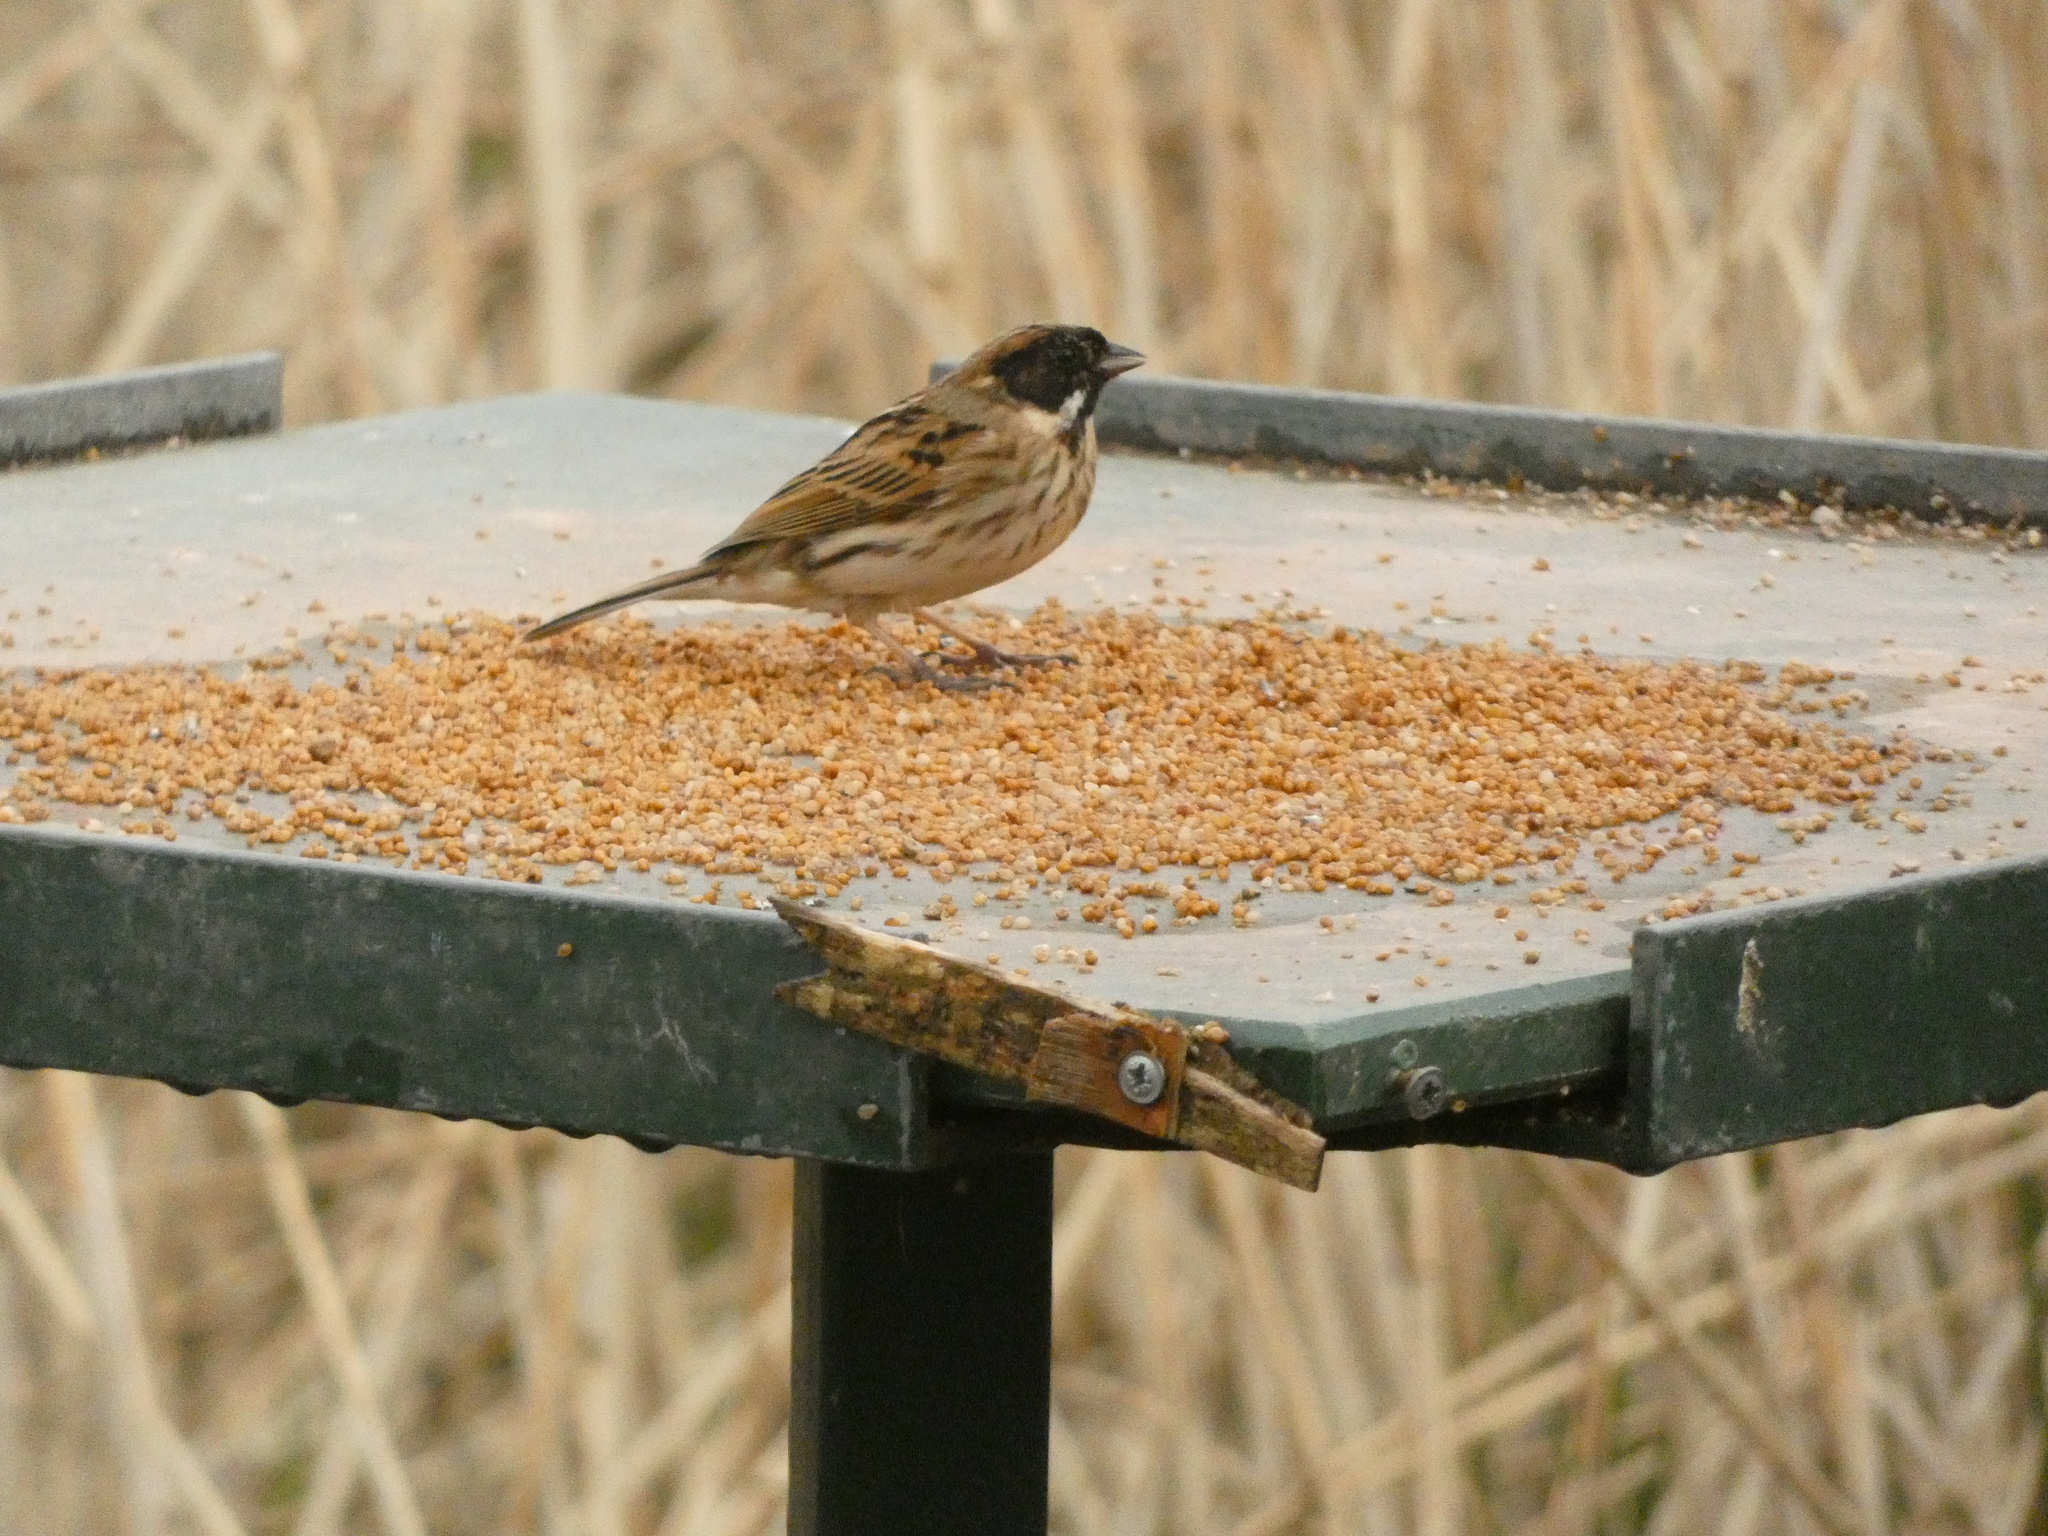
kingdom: Animalia
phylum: Chordata
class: Aves
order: Passeriformes
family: Emberizidae
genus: Emberiza
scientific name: Emberiza schoeniclus
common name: Reed bunting
